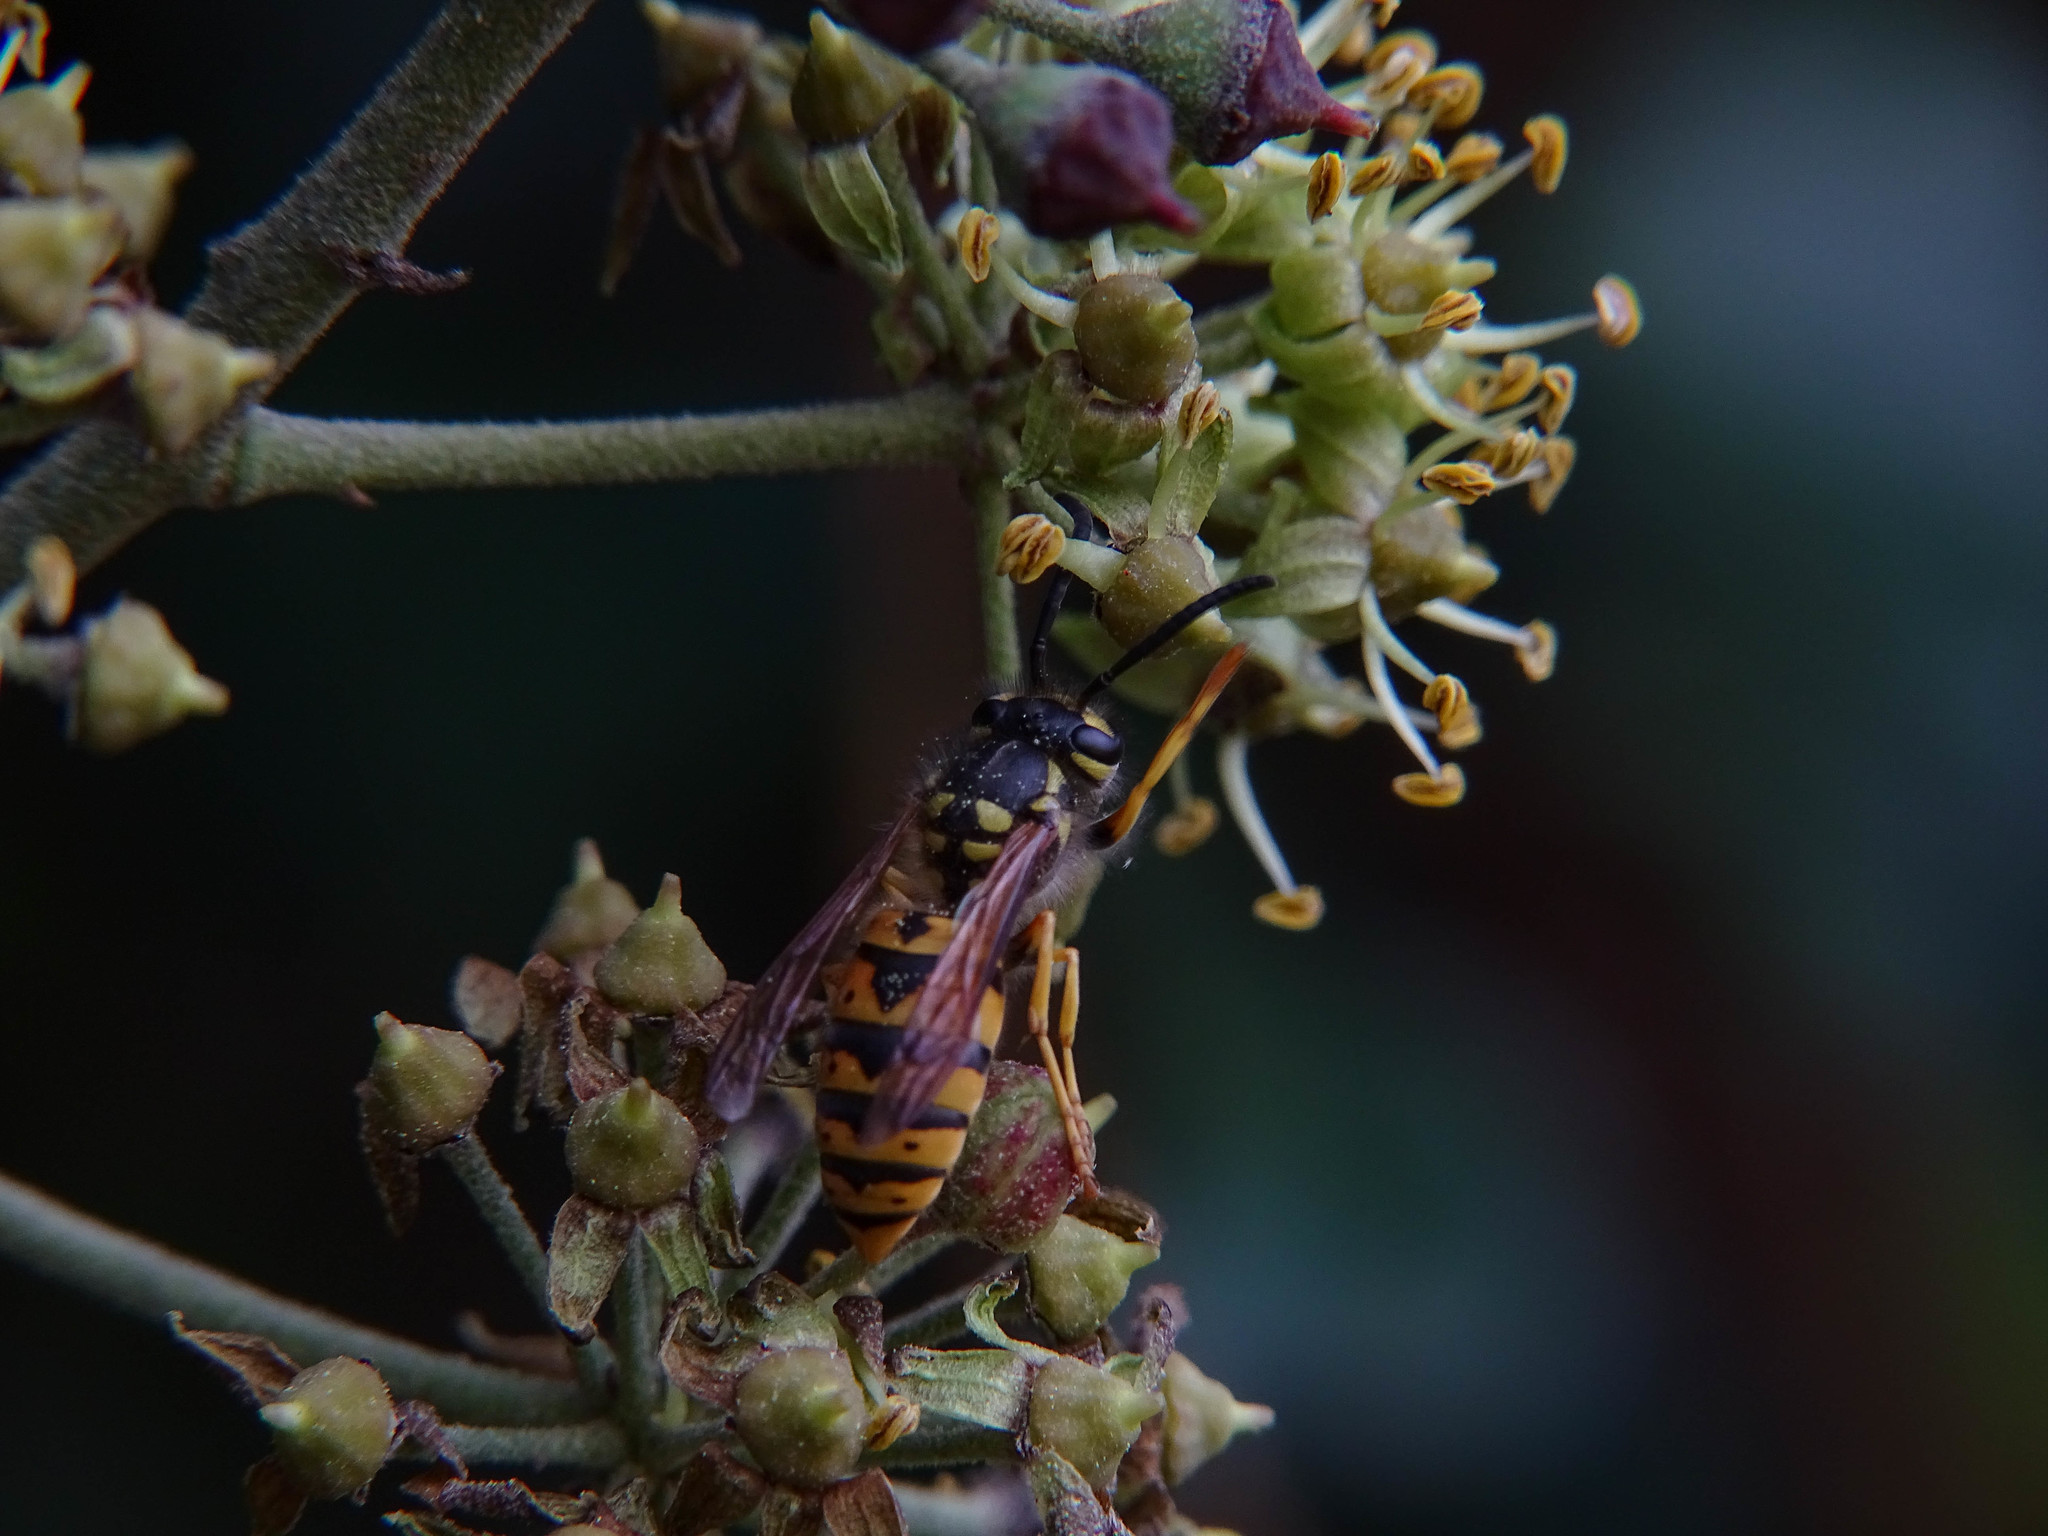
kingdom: Animalia
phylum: Arthropoda
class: Insecta
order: Hymenoptera
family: Vespidae
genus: Vespula
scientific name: Vespula germanica
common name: German wasp
